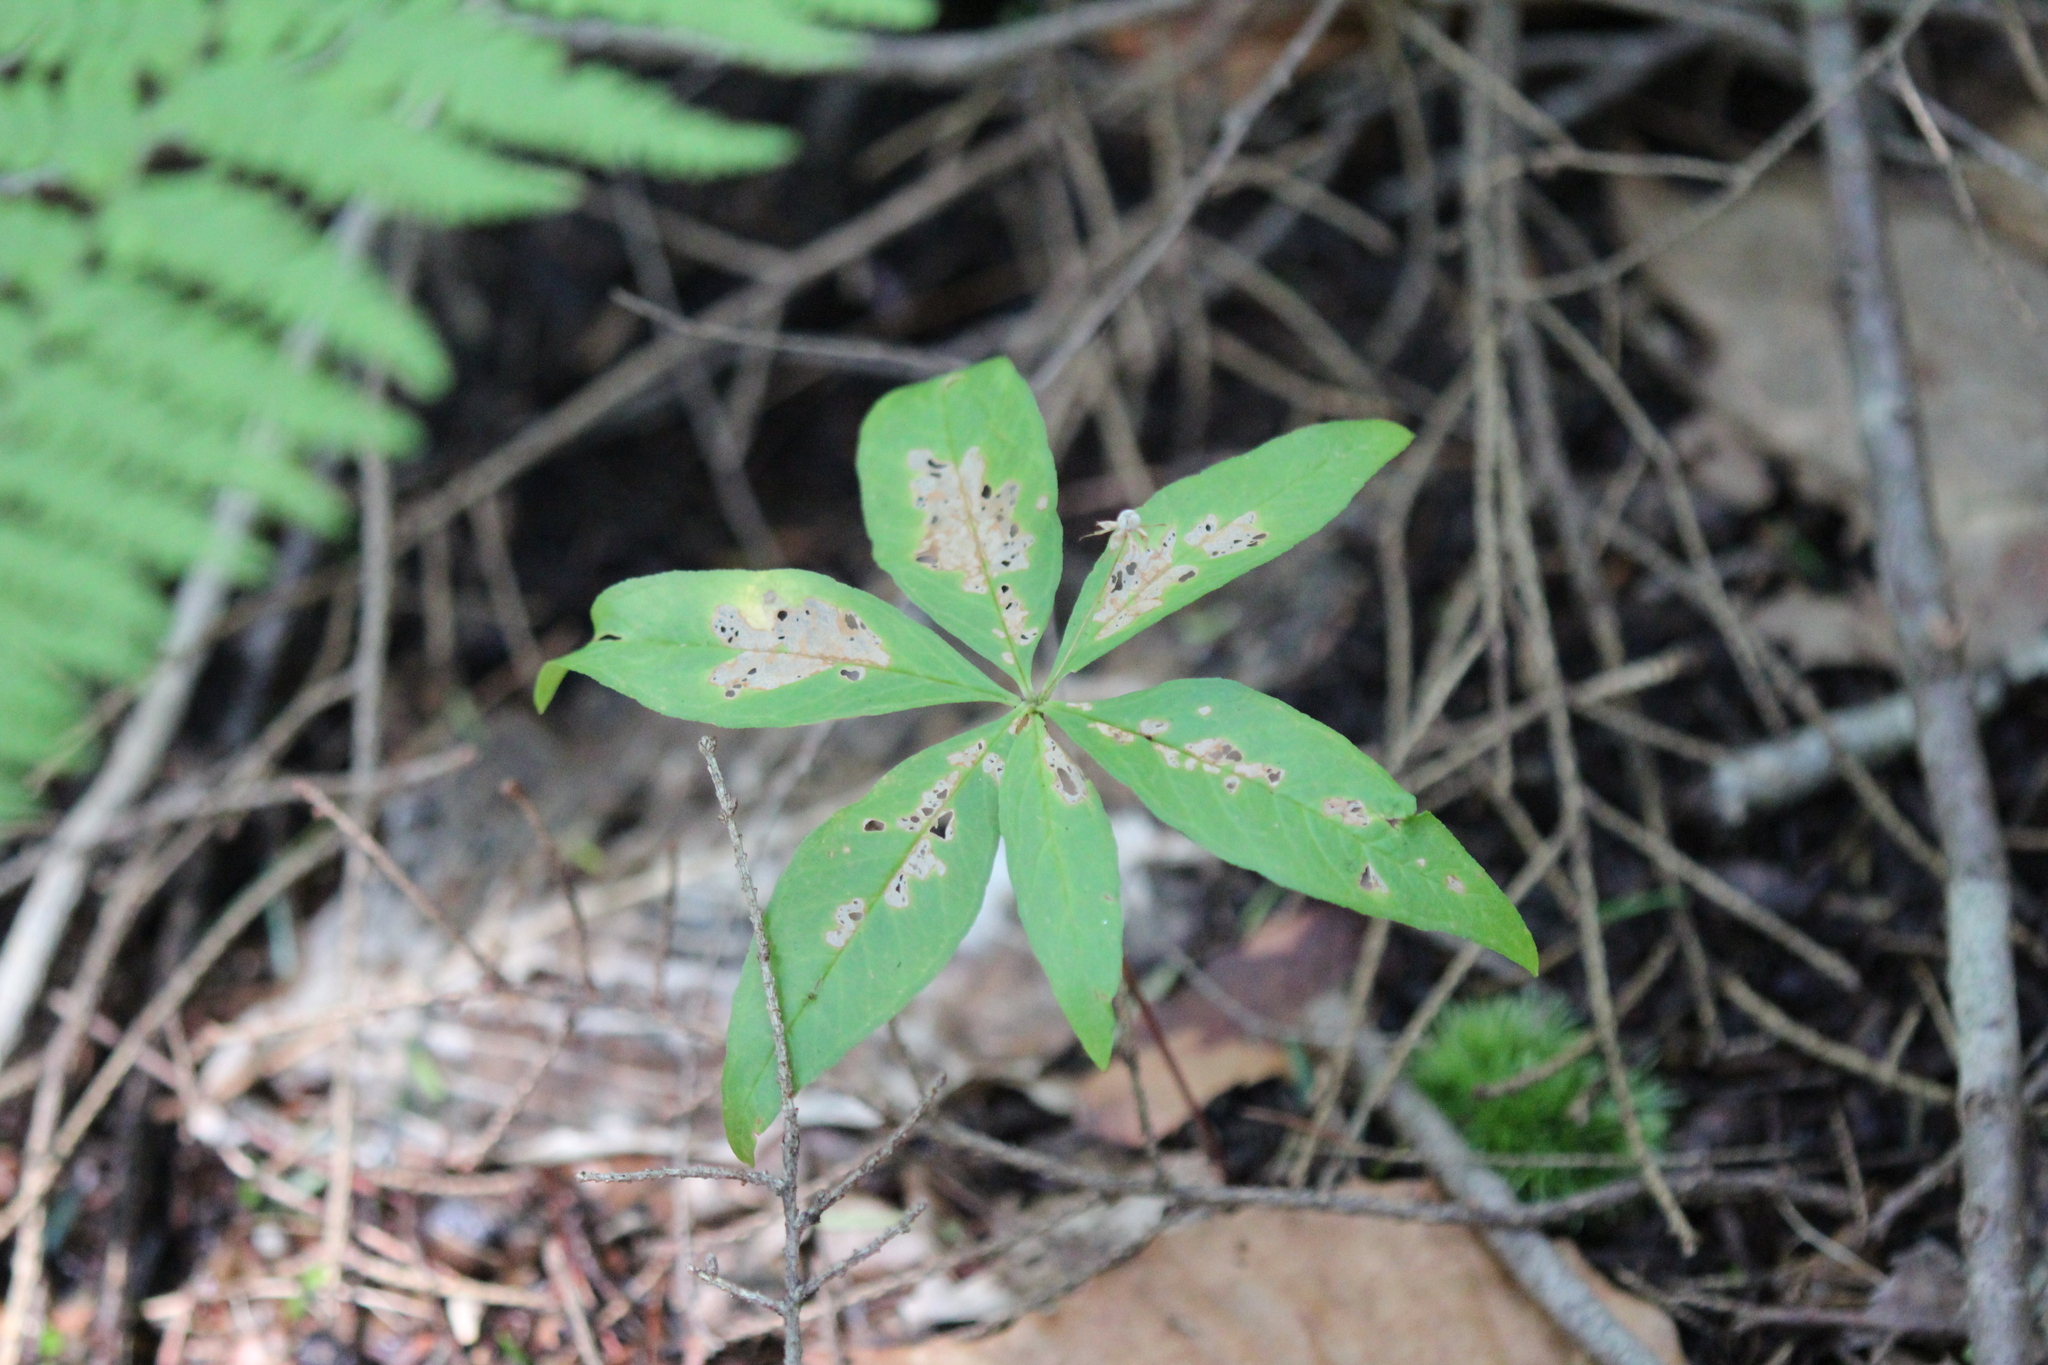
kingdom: Plantae
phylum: Tracheophyta
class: Magnoliopsida
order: Ericales
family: Primulaceae
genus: Lysimachia
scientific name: Lysimachia borealis
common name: American starflower
